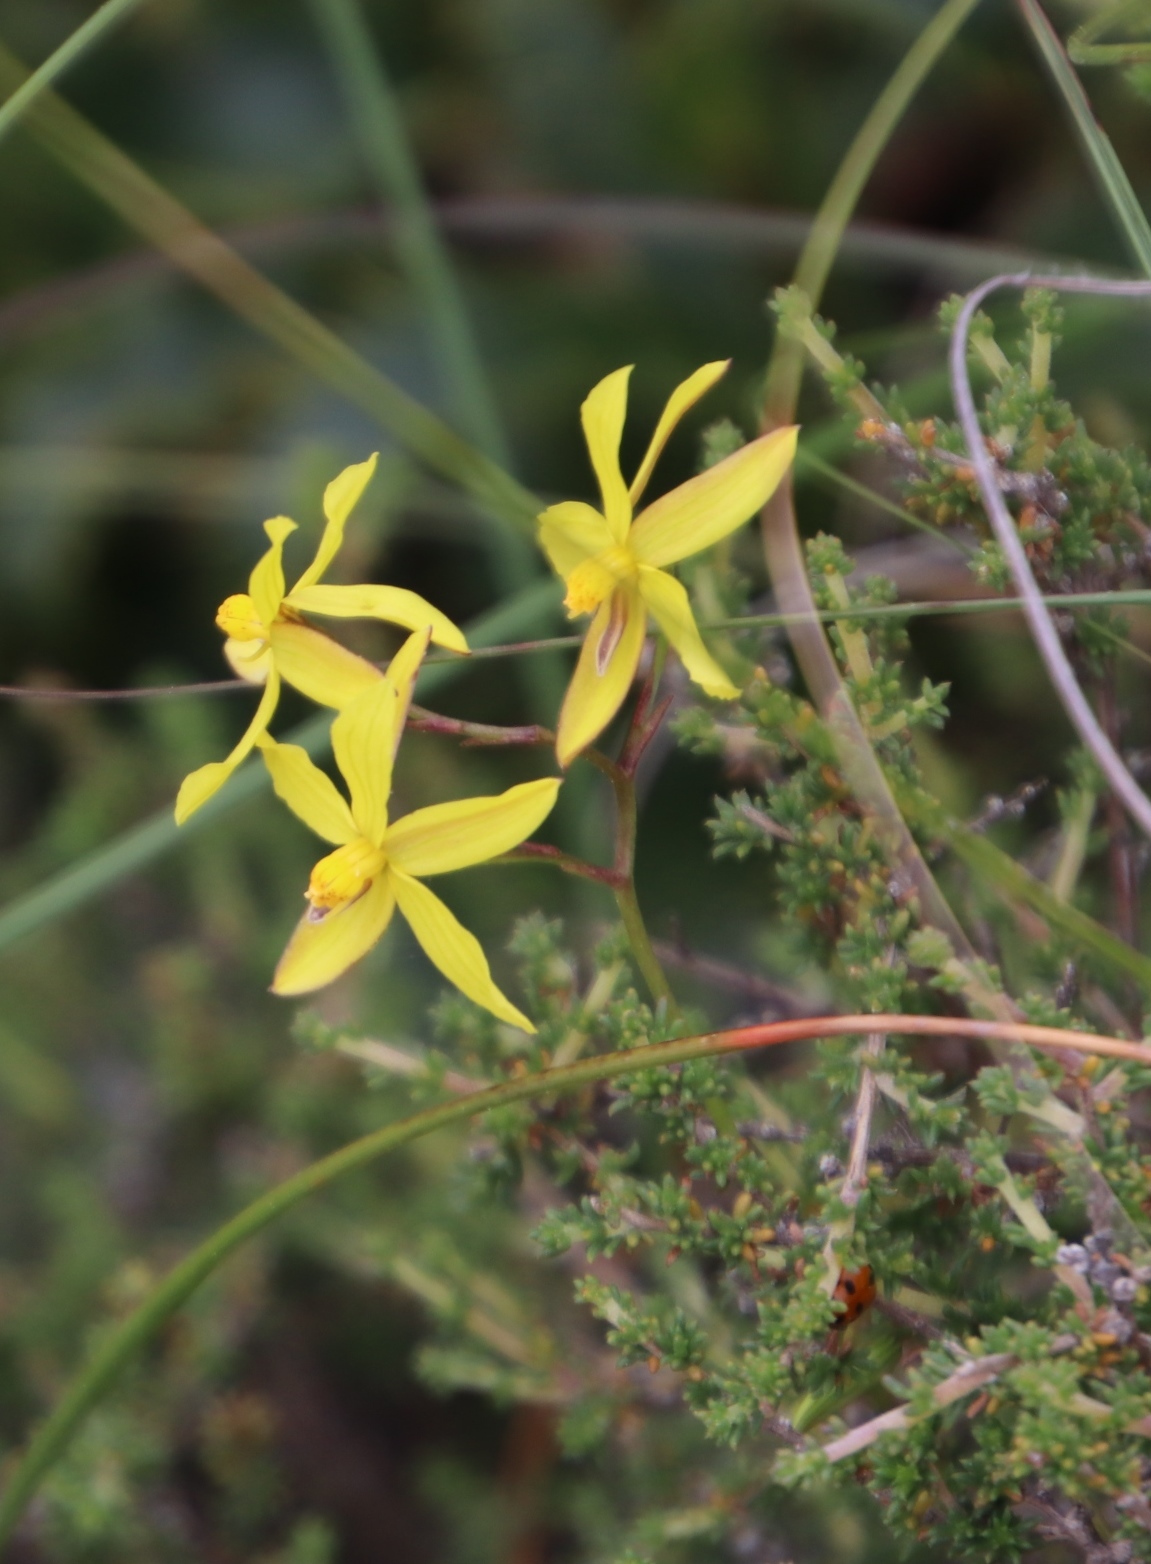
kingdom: Plantae
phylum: Tracheophyta
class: Liliopsida
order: Asparagales
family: Tecophilaeaceae
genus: Cyanella
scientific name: Cyanella lutea
